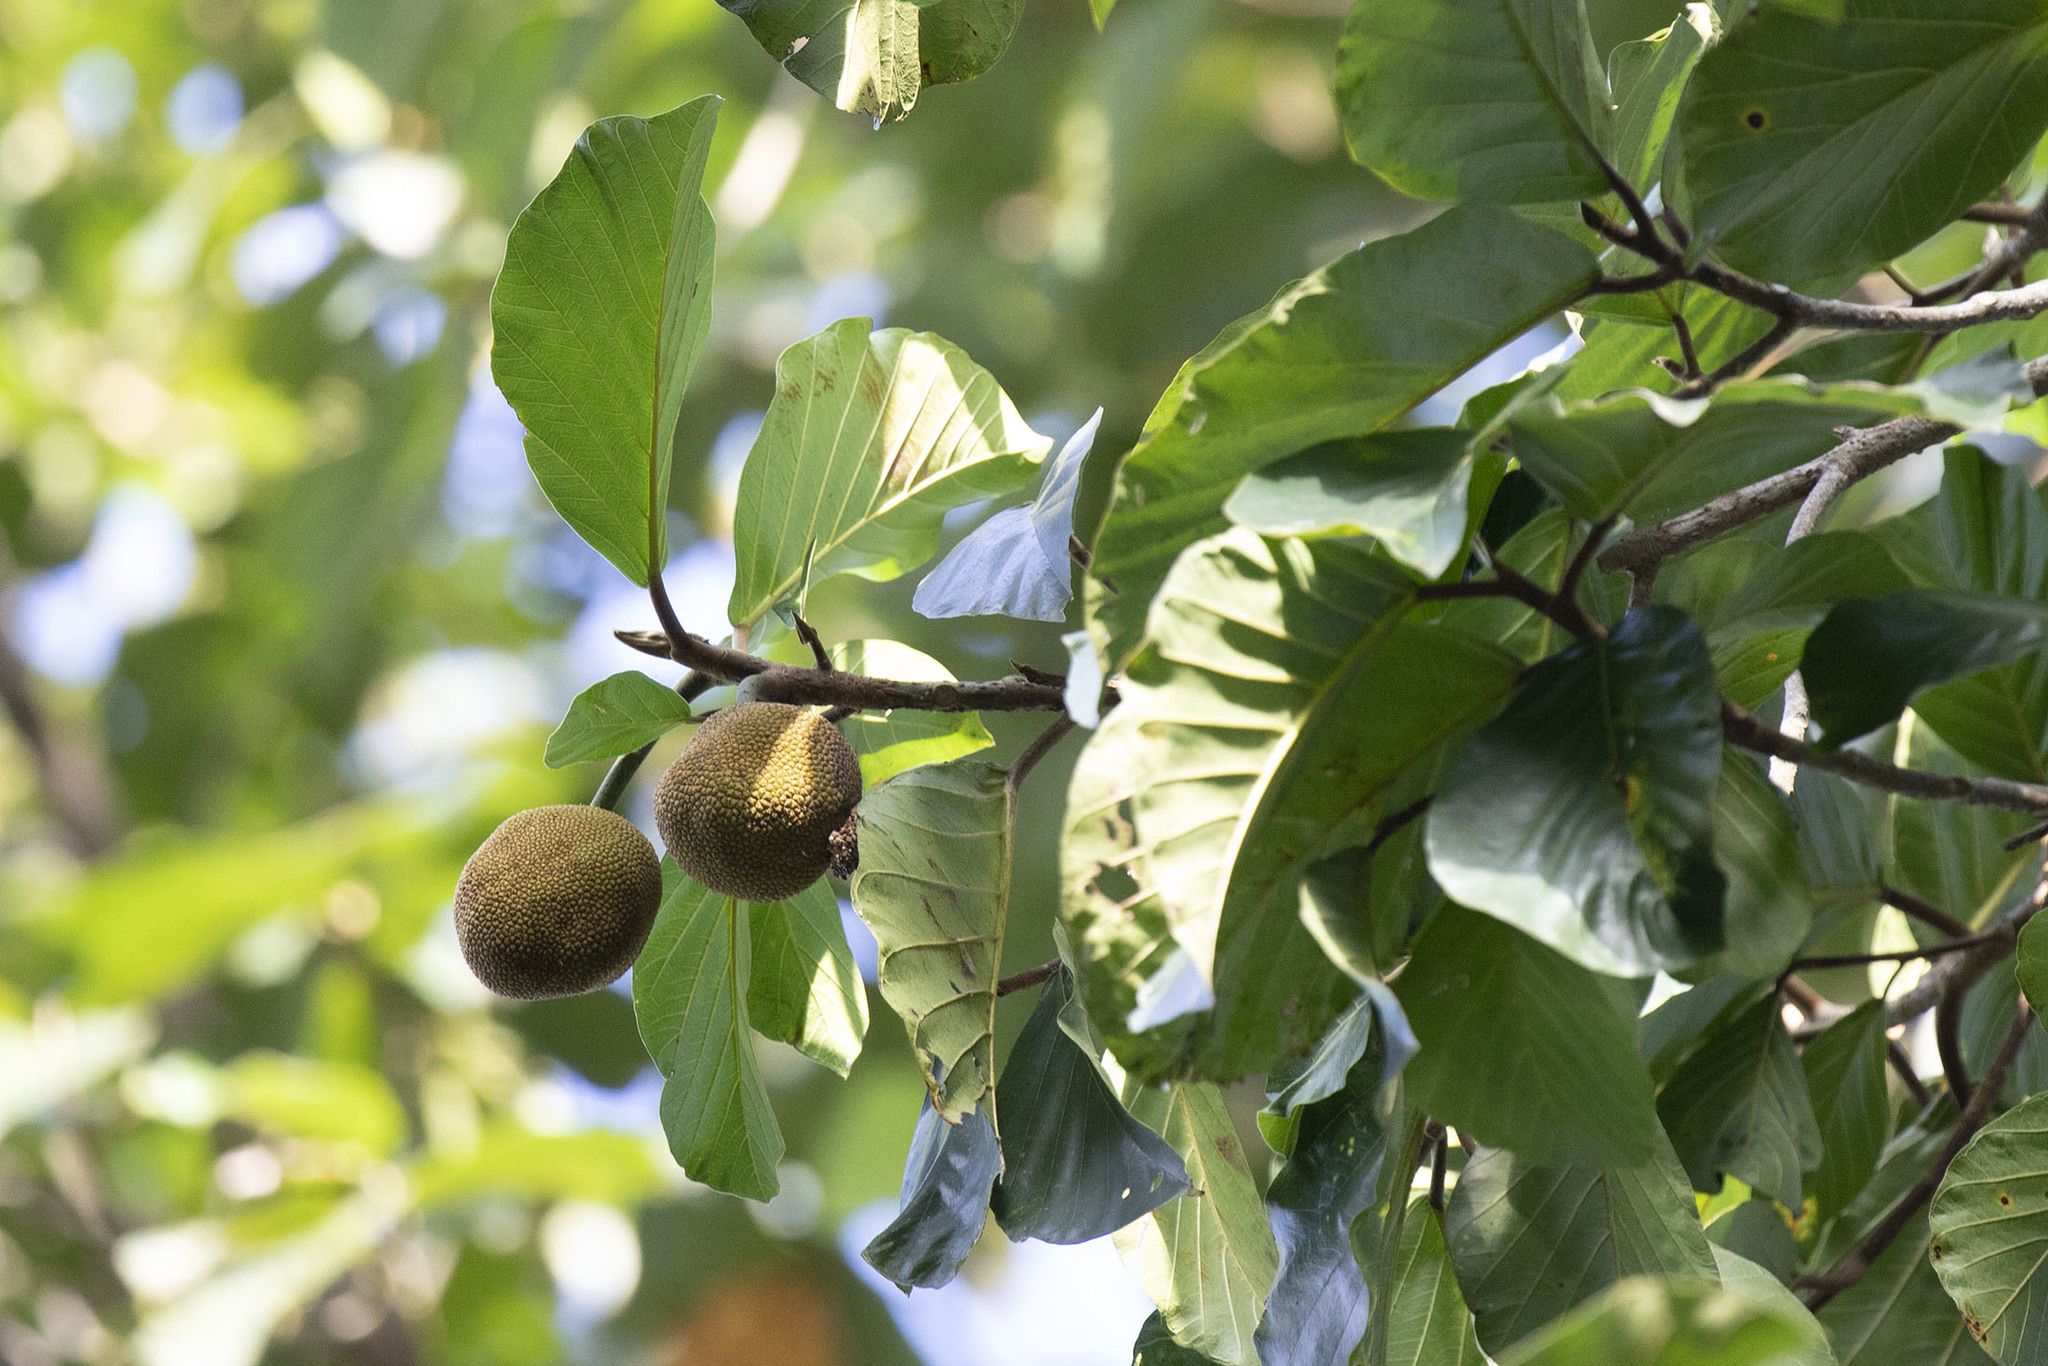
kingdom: Plantae
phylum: Tracheophyta
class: Magnoliopsida
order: Rosales
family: Moraceae
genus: Artocarpus
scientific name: Artocarpus chama
